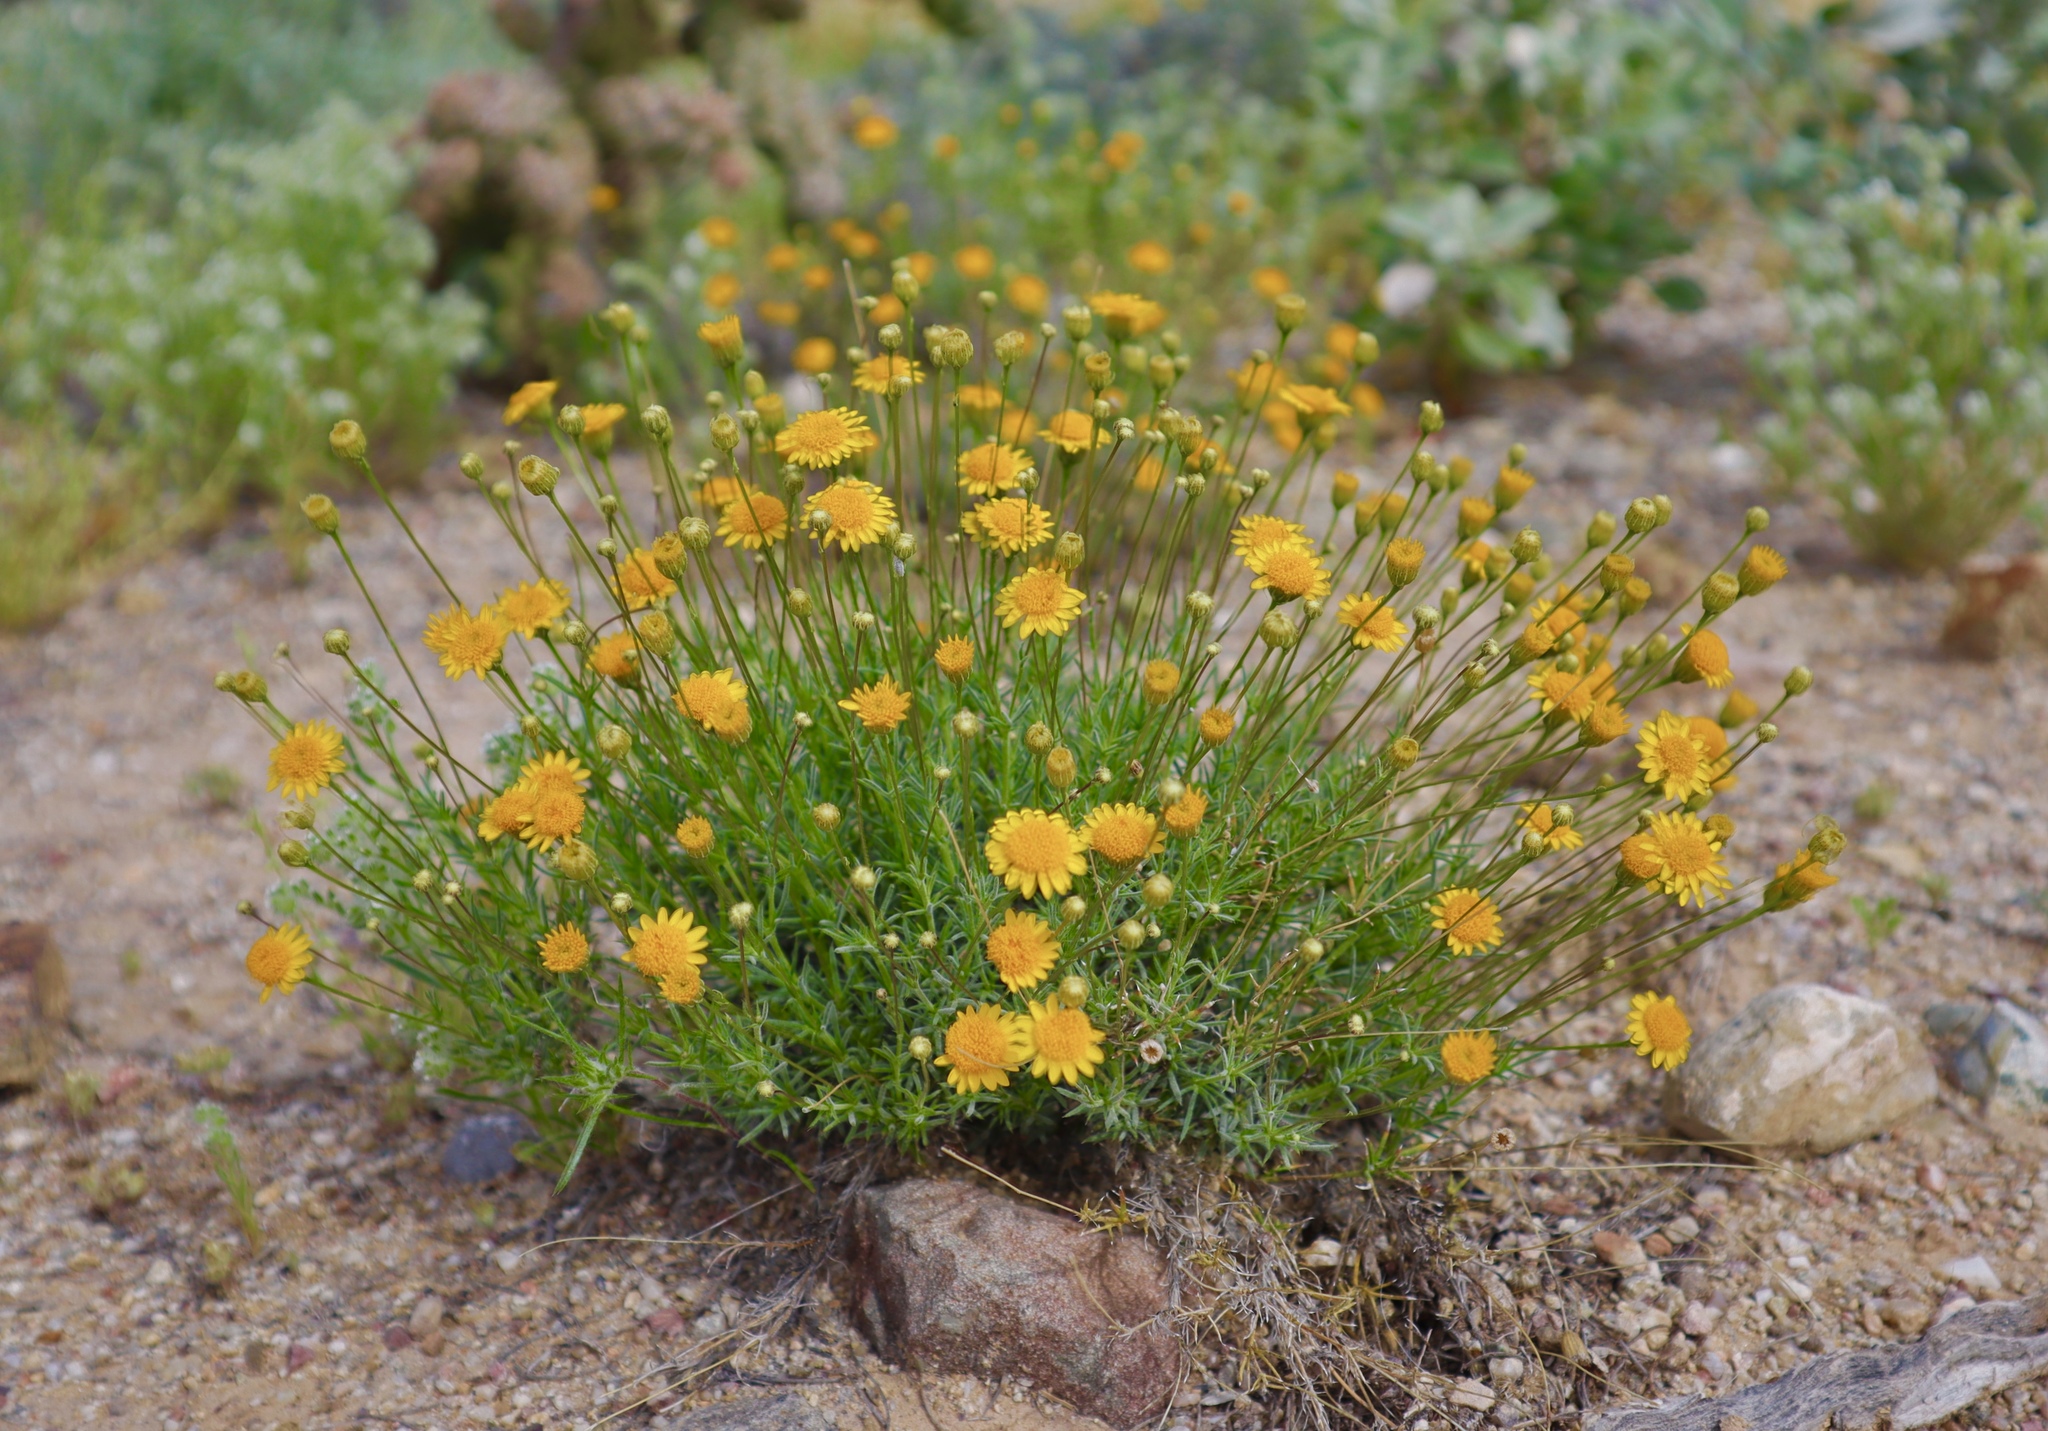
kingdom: Plantae
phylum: Tracheophyta
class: Magnoliopsida
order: Asterales
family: Asteraceae
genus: Thymophylla
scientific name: Thymophylla pentachaeta
